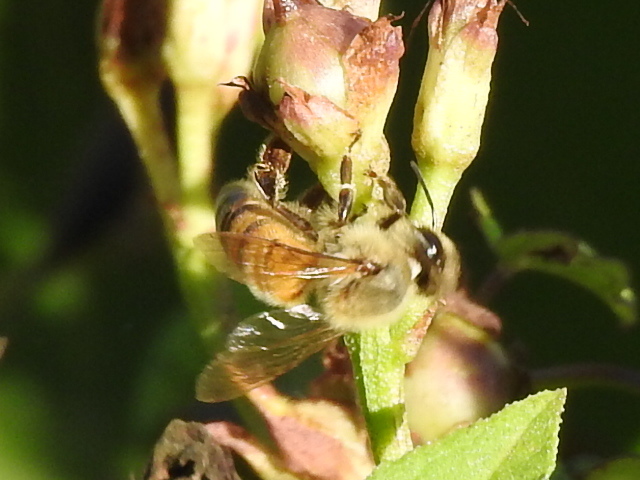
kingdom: Animalia
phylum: Arthropoda
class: Insecta
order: Hymenoptera
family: Apidae
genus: Apis
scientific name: Apis mellifera
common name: Honey bee
